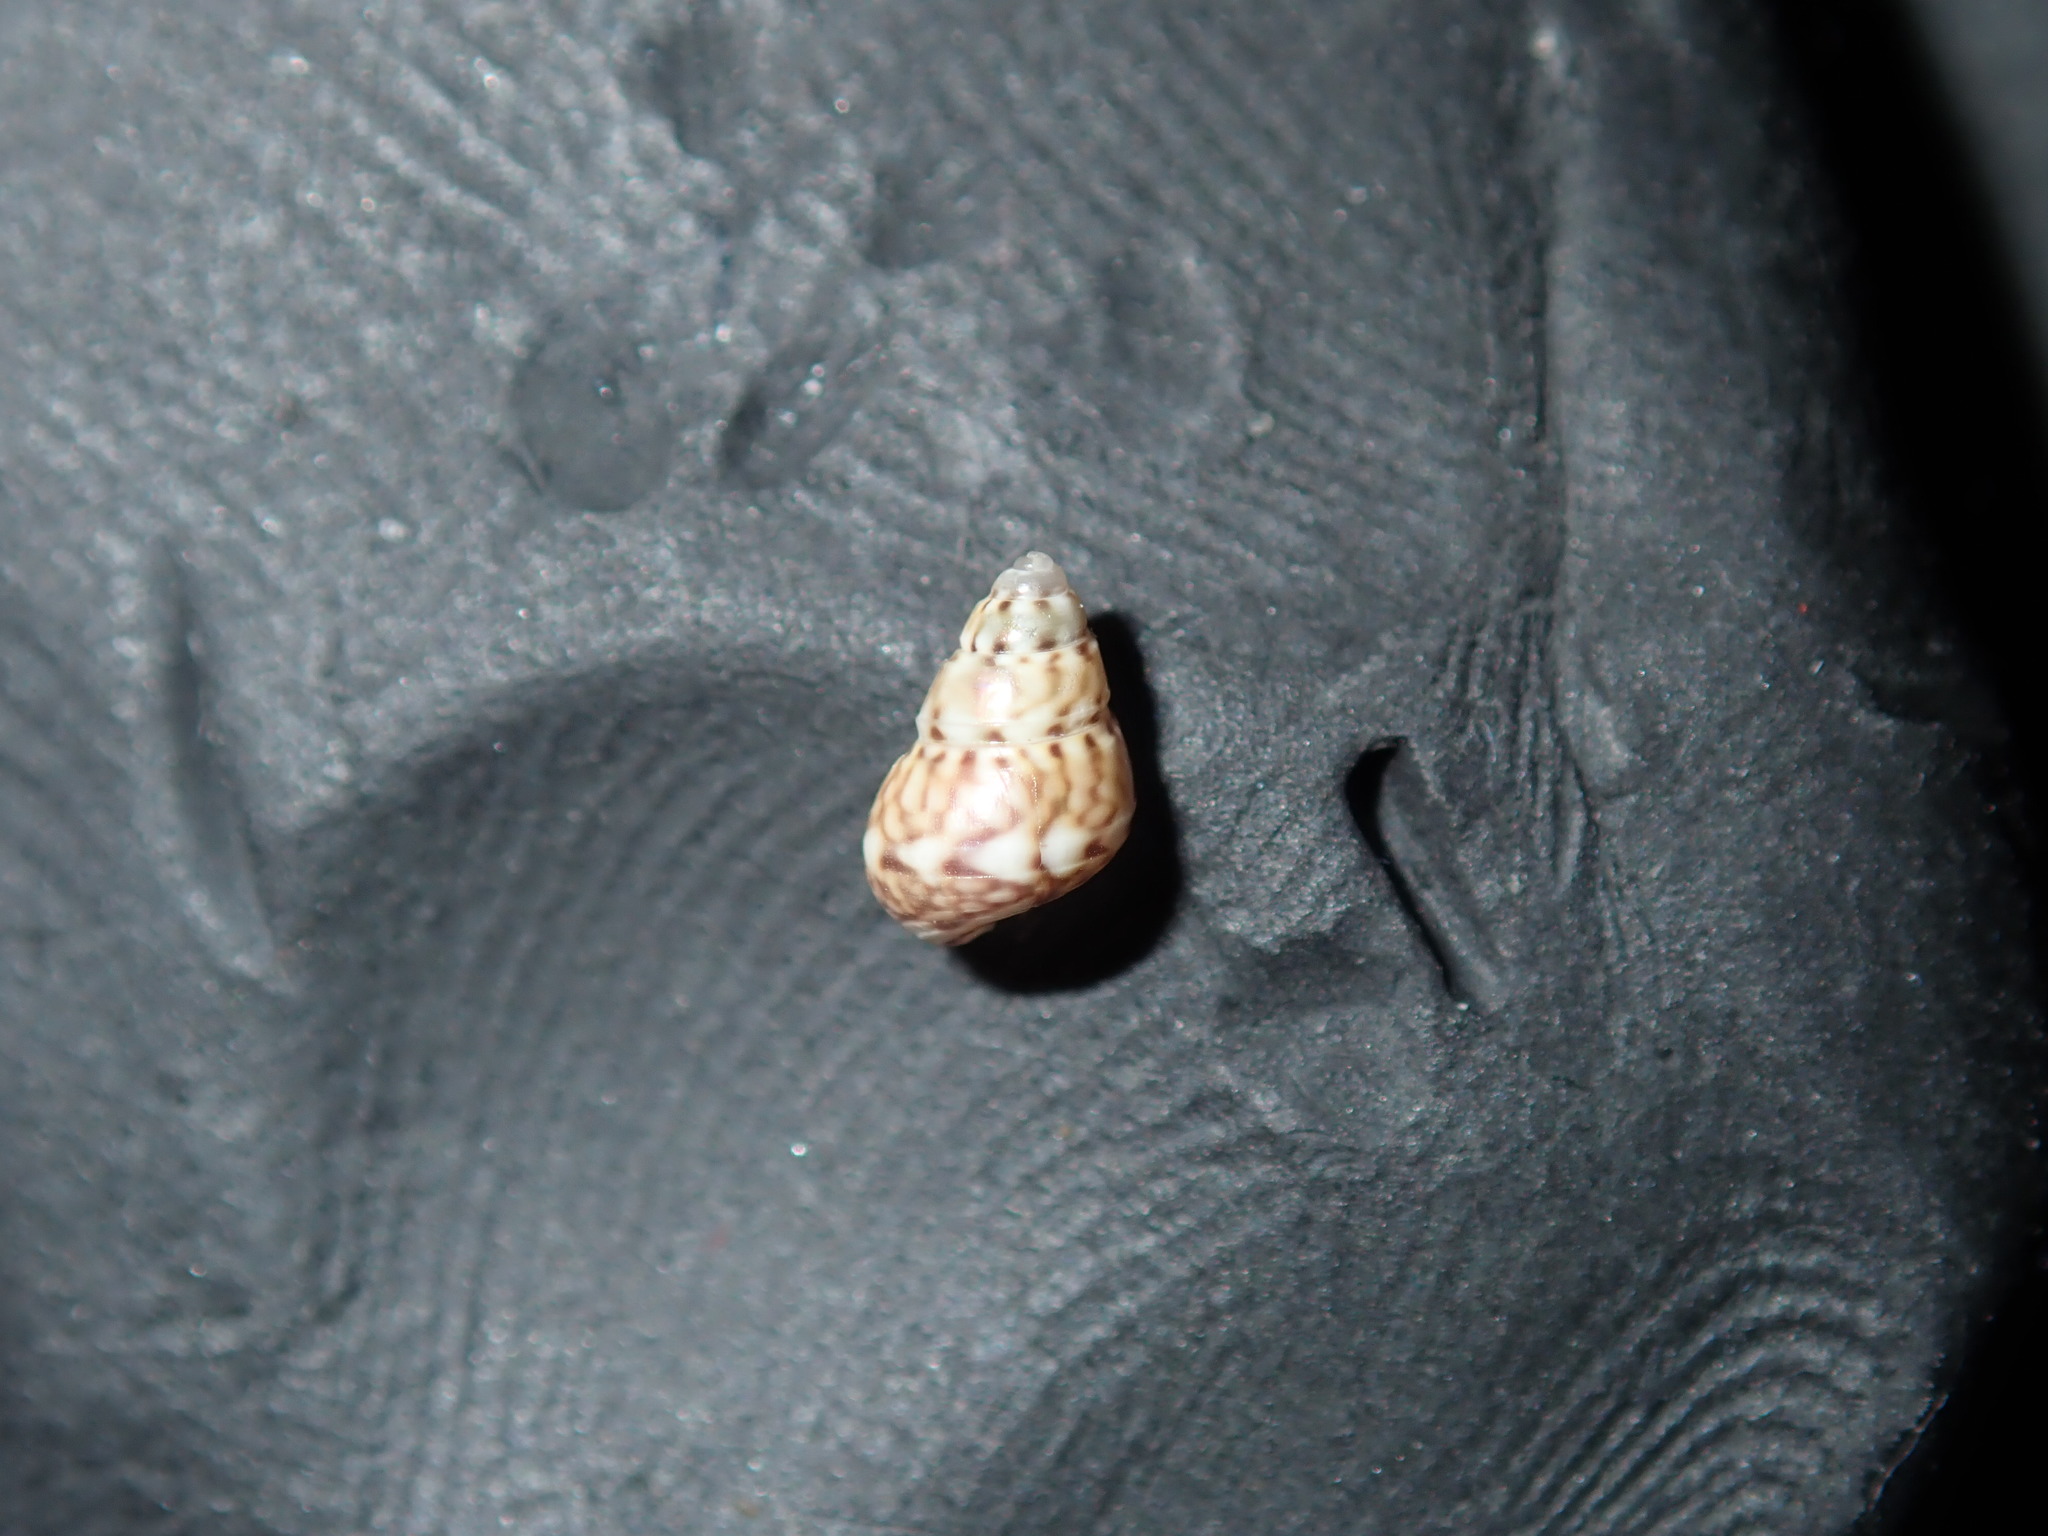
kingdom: Animalia
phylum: Mollusca
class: Gastropoda
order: Trochida
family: Trochidae
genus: Leiopyrga
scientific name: Leiopyrga cingulata
